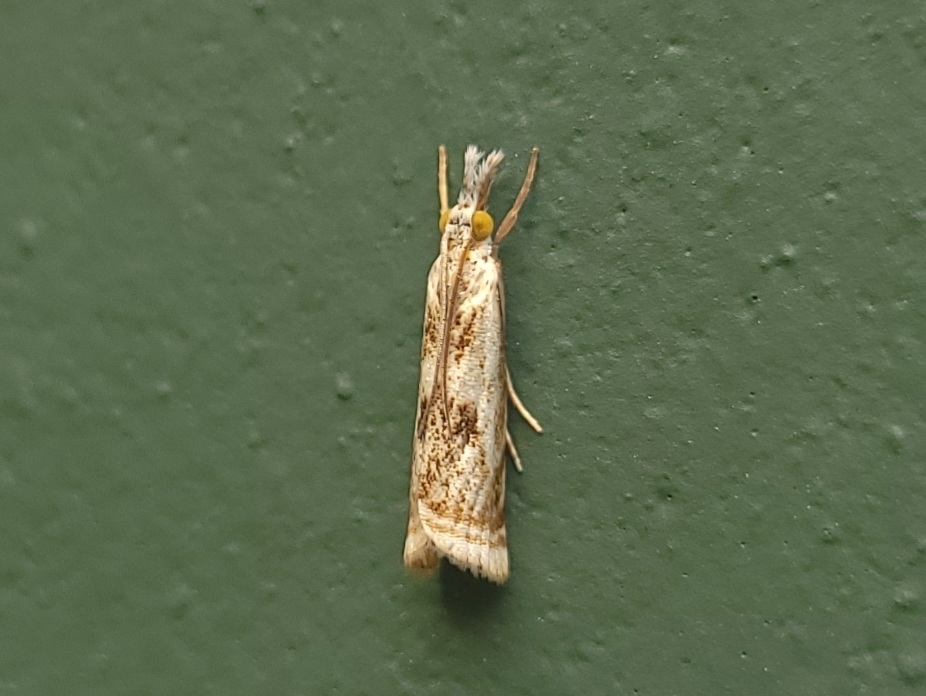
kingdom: Animalia
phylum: Arthropoda
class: Insecta
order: Lepidoptera
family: Crambidae
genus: Microcrambus
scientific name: Microcrambus elegans
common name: Elegant grass-veneer
